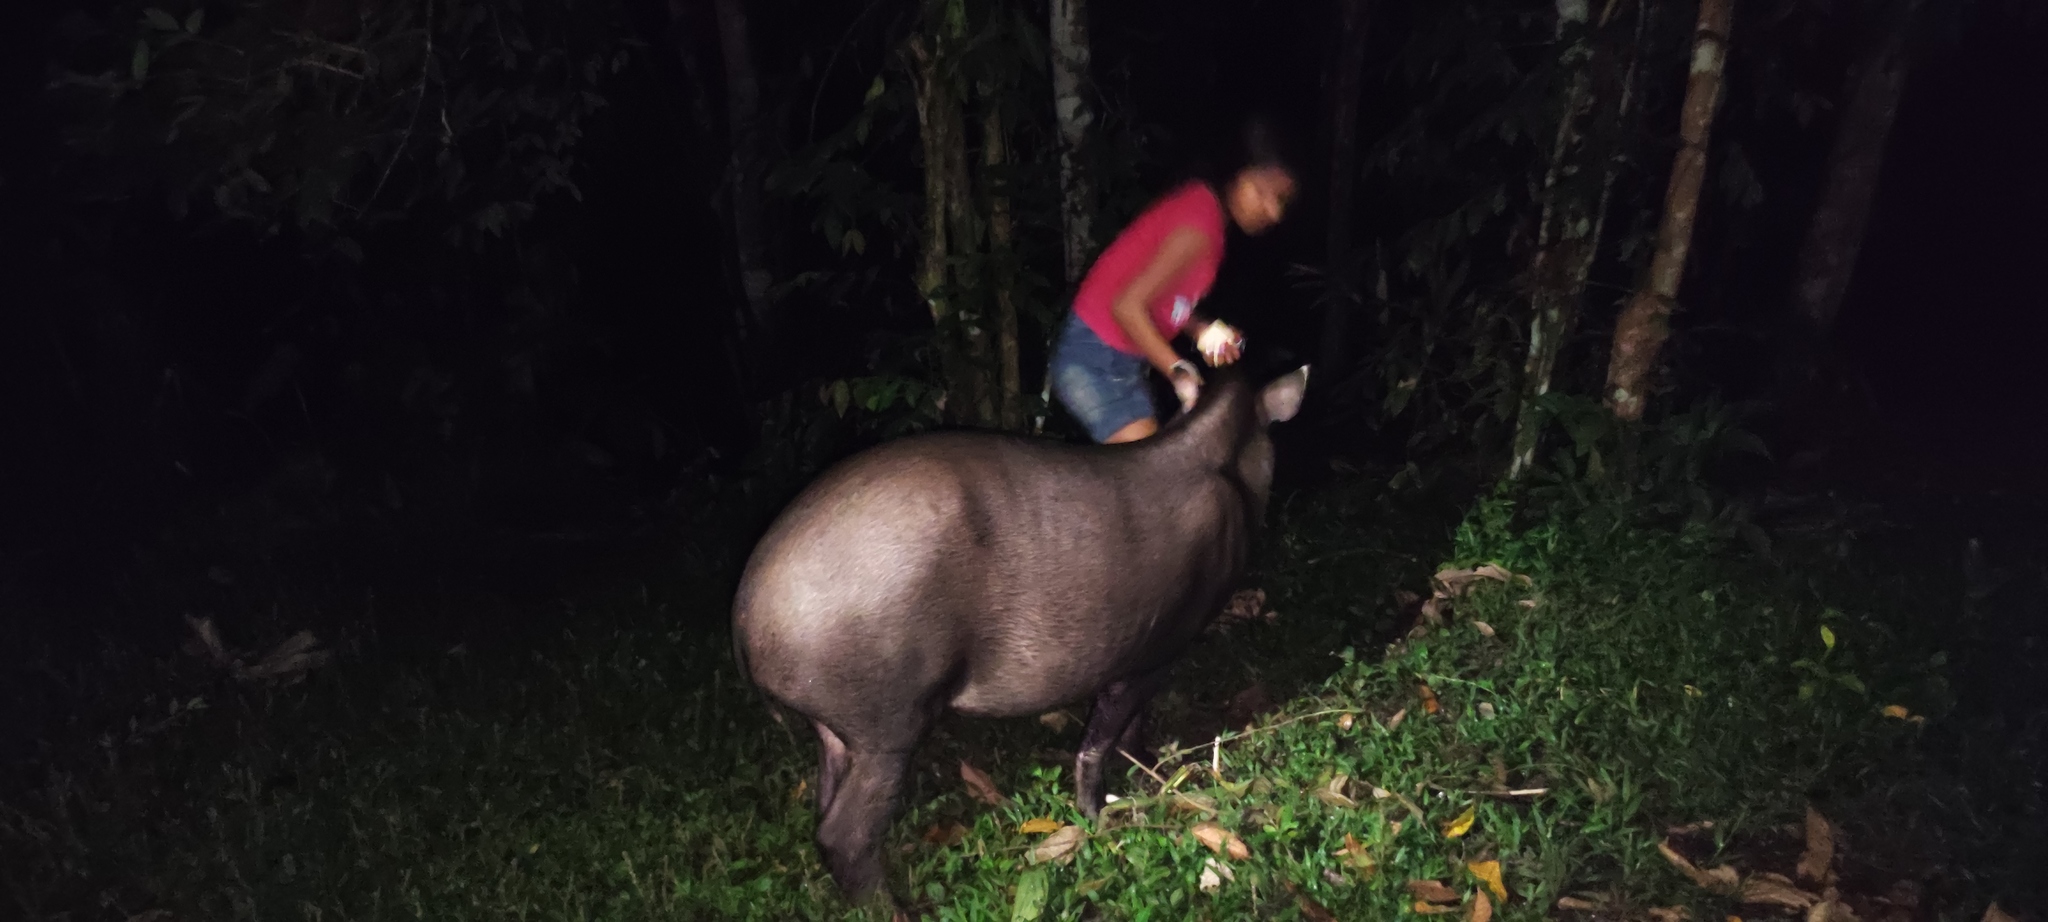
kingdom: Animalia
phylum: Chordata
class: Mammalia
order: Perissodactyla
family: Tapiridae
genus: Tapirus
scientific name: Tapirus terrestris
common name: Brazilian tapir
